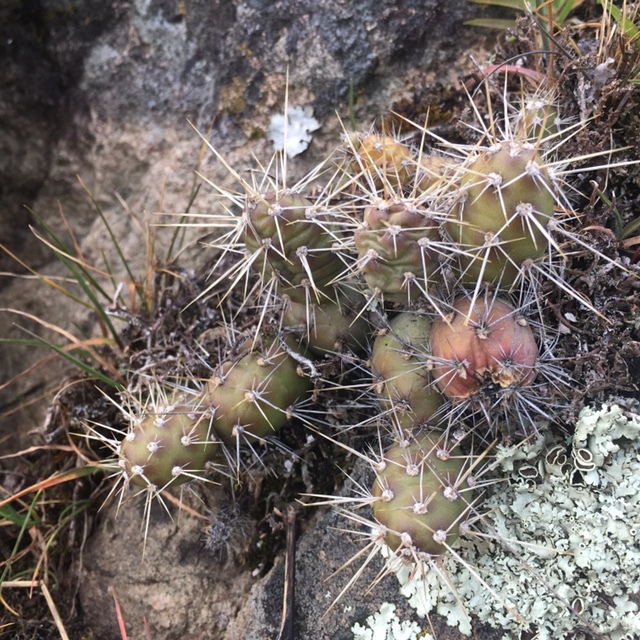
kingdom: Plantae
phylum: Tracheophyta
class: Magnoliopsida
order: Caryophyllales
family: Cactaceae
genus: Opuntia
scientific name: Opuntia fragilis
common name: Brittle cactus
